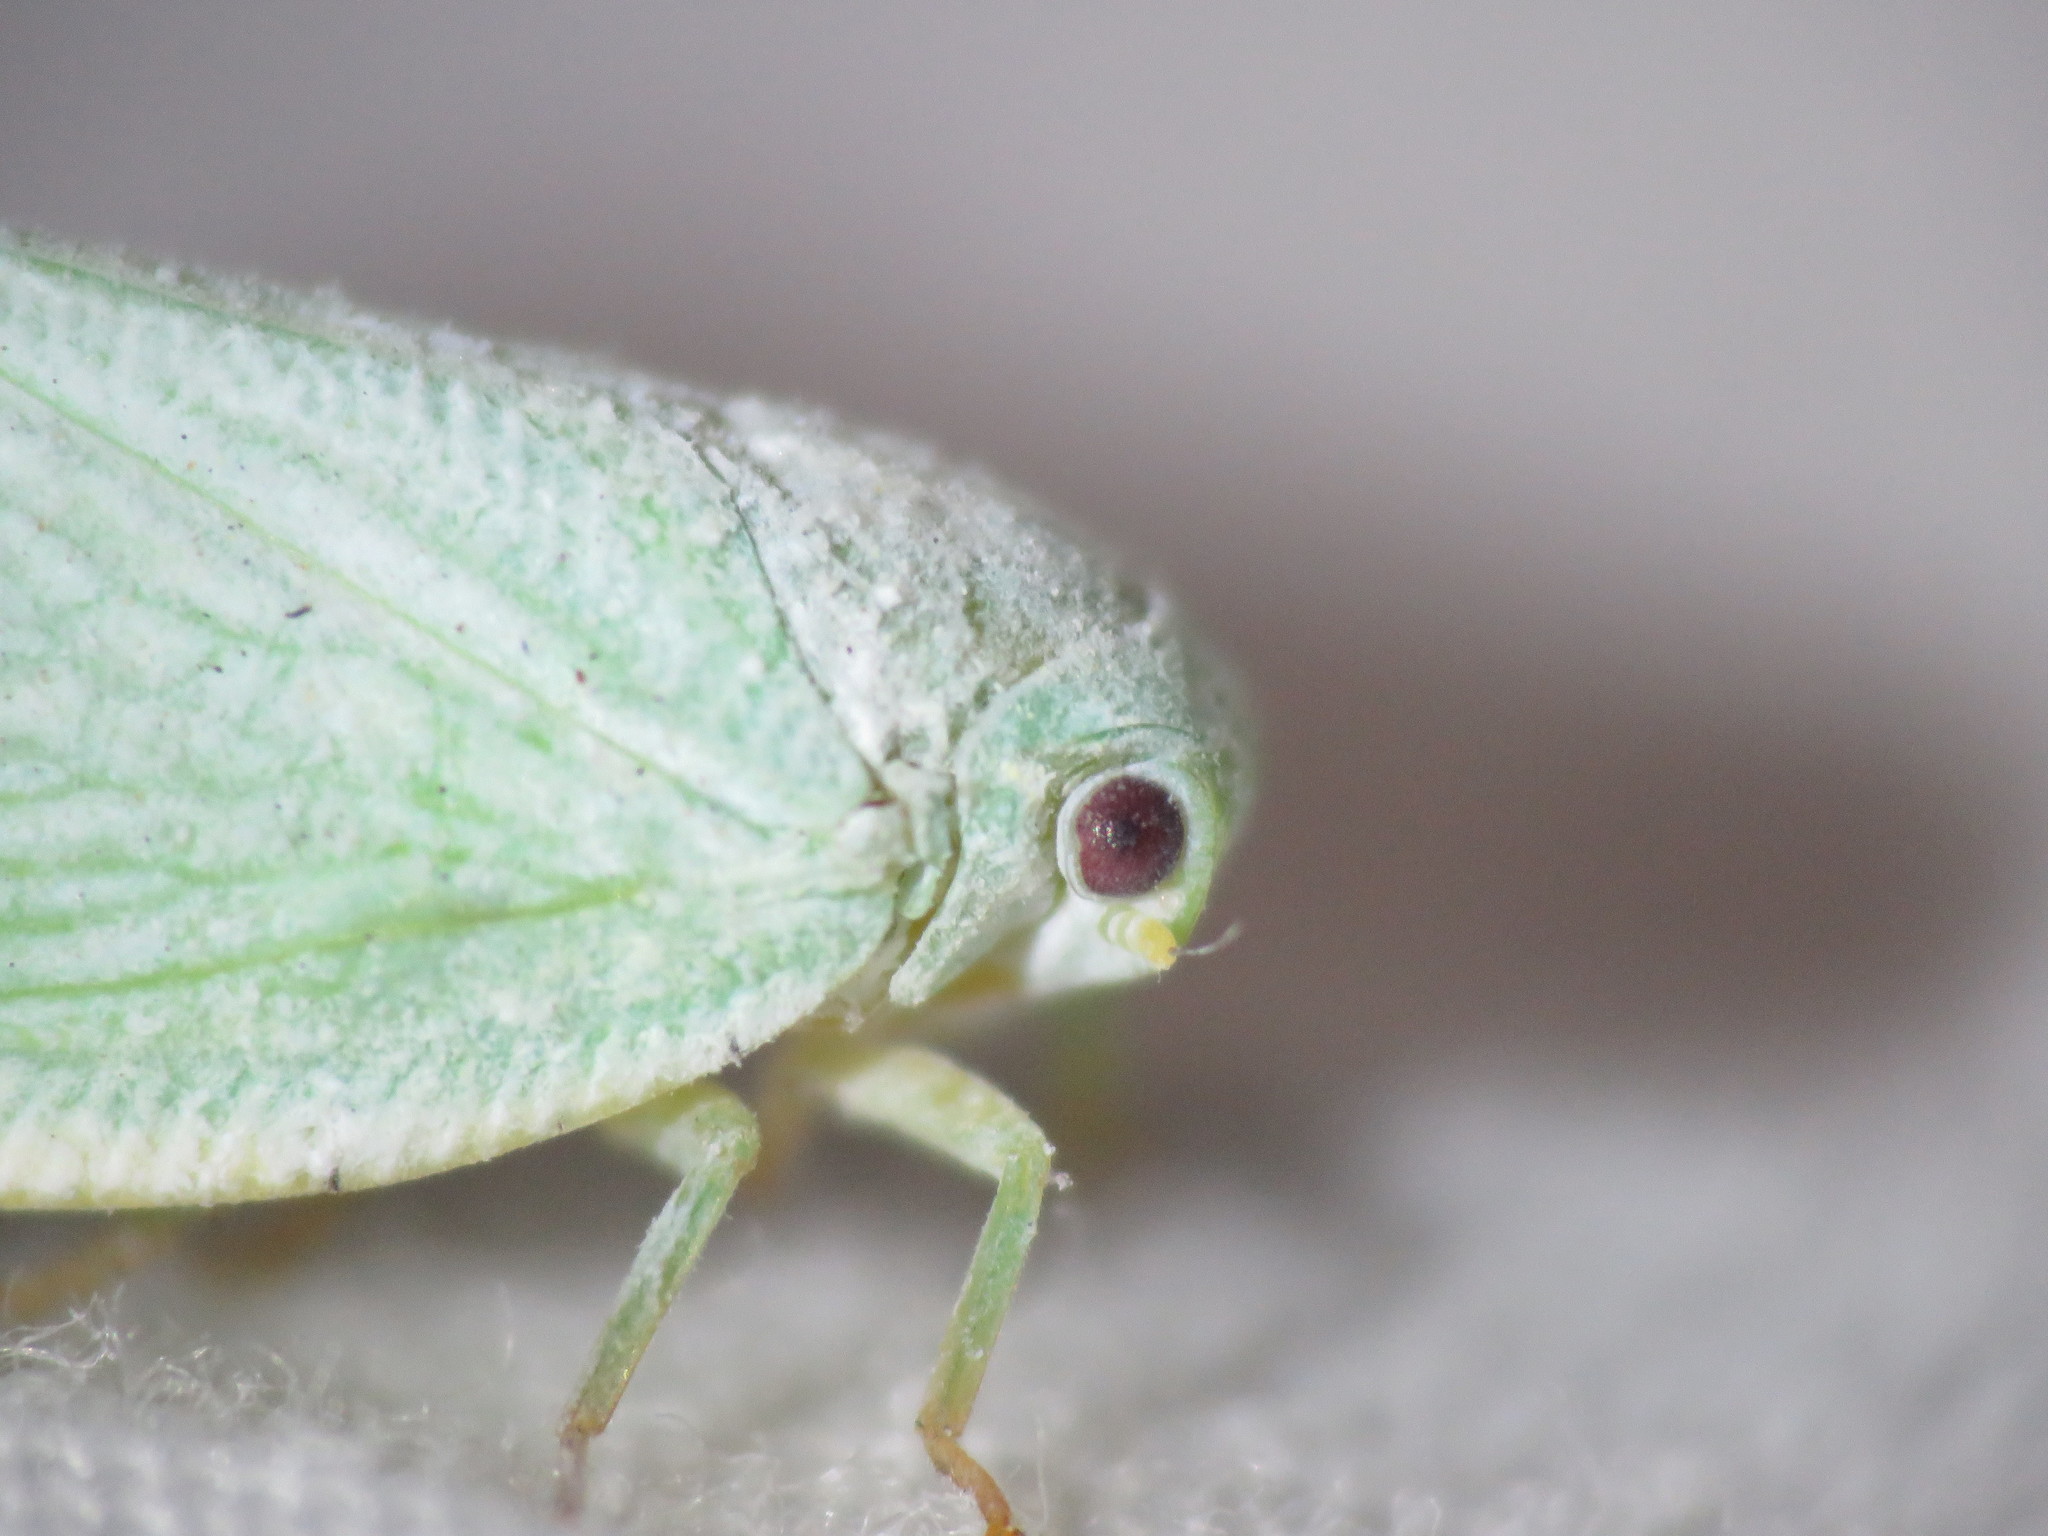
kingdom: Animalia
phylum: Arthropoda
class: Insecta
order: Hemiptera
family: Flatidae
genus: Flatormenis
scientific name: Flatormenis proxima
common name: Northern flatid planthopper
